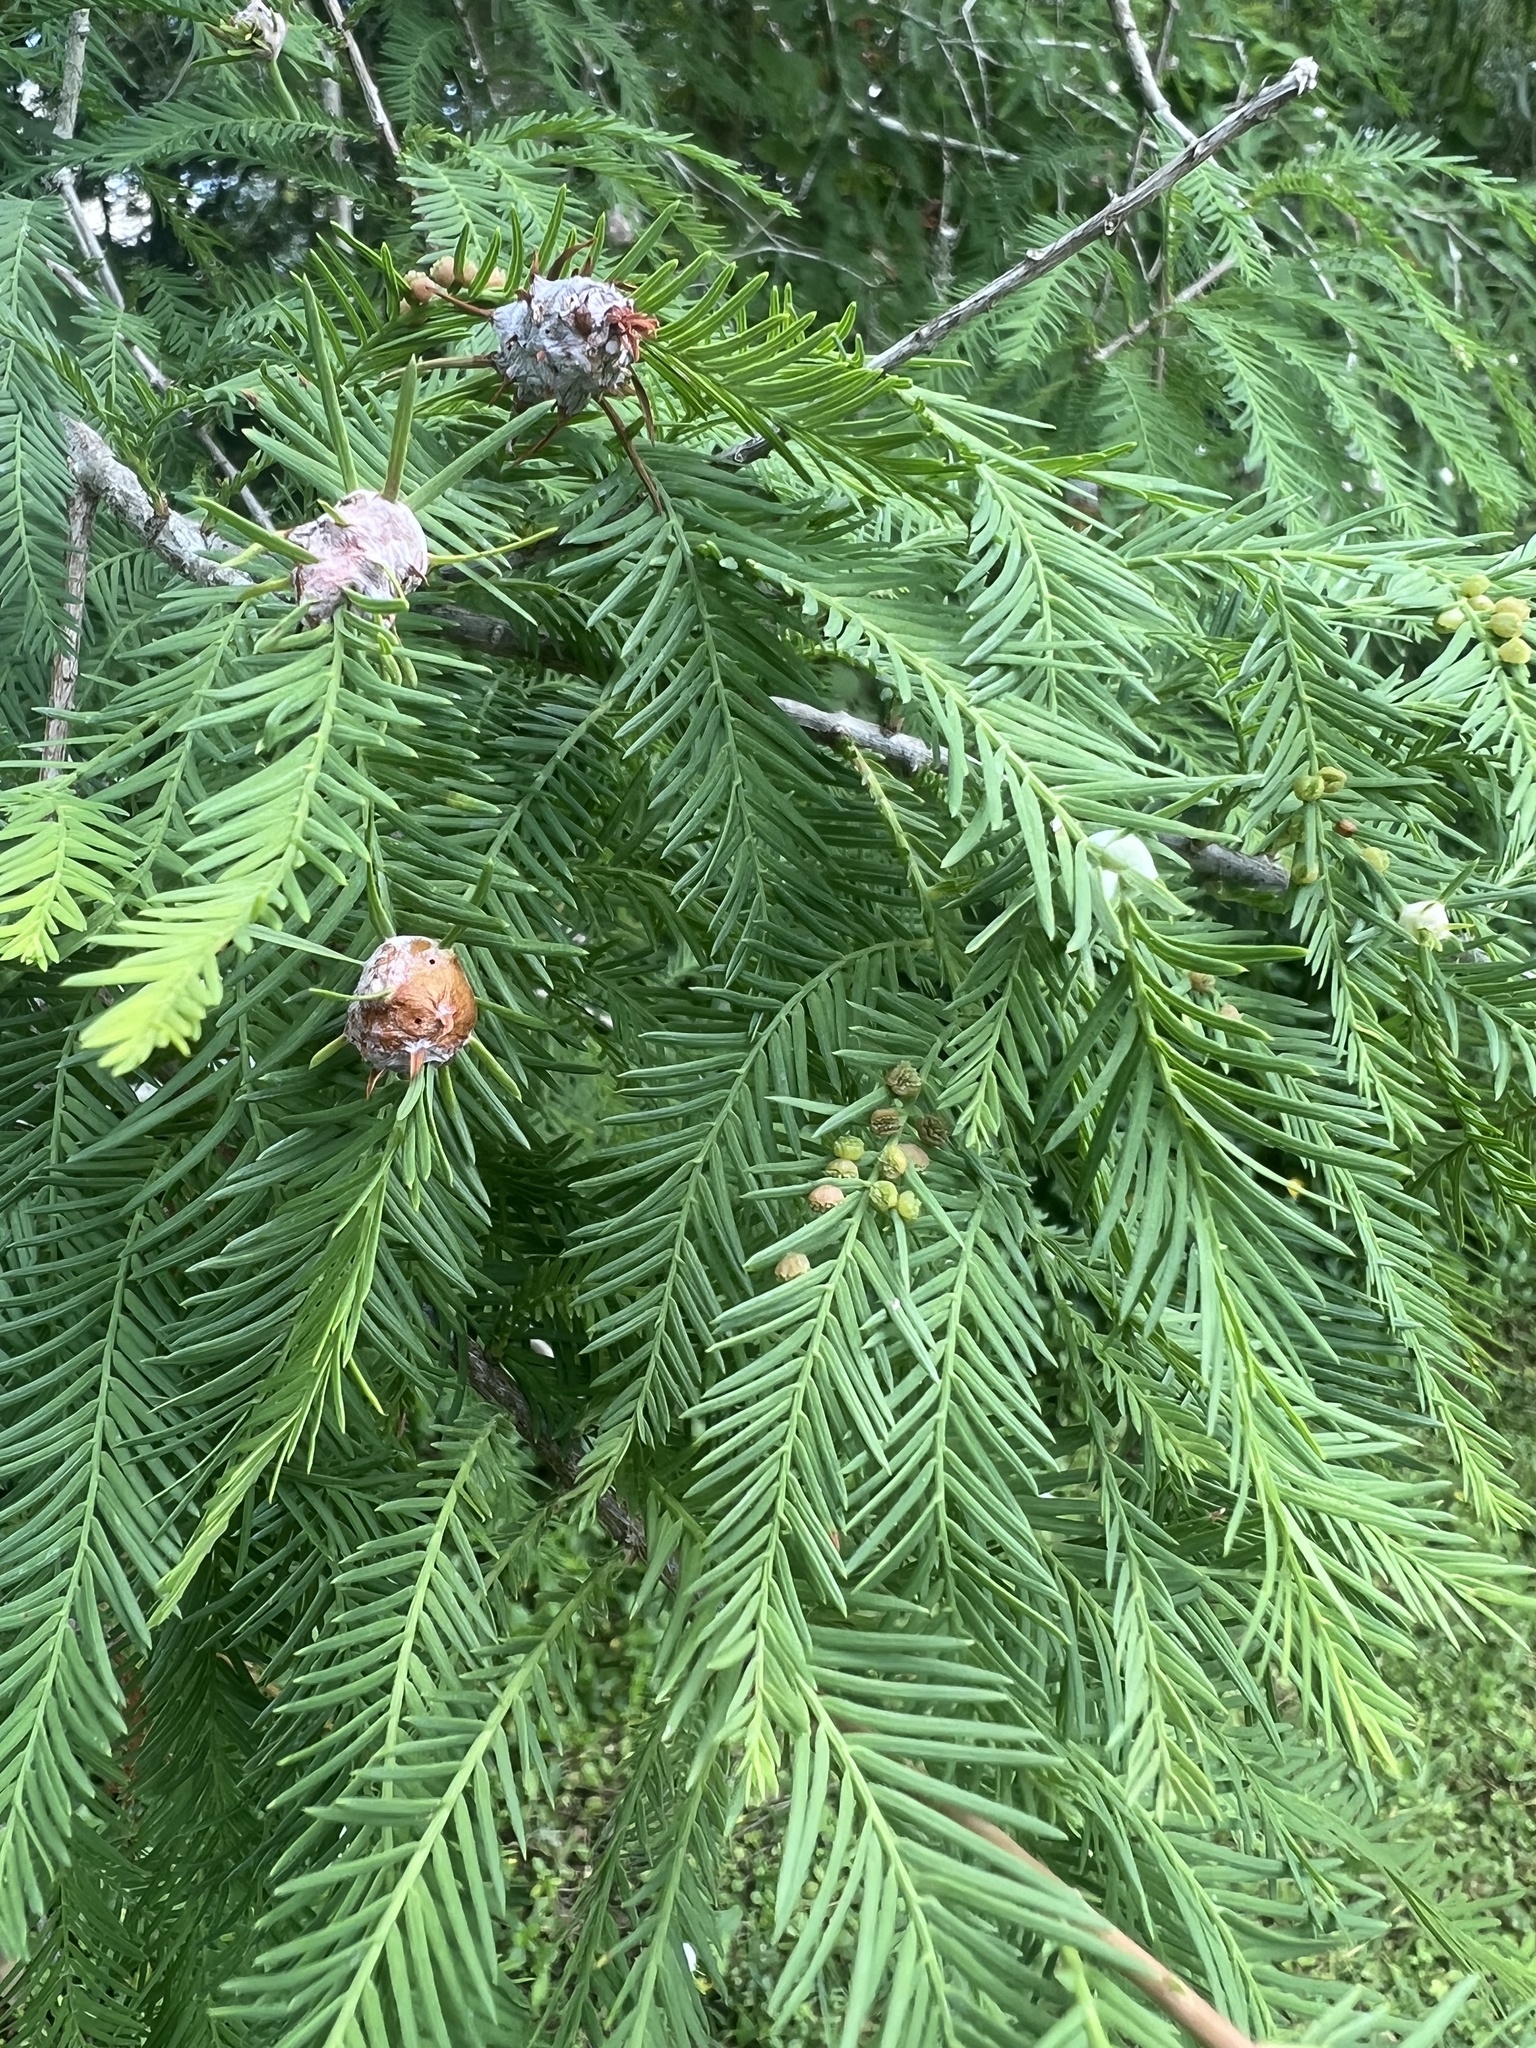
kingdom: Animalia
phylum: Arthropoda
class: Insecta
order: Diptera
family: Cecidomyiidae
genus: Taxodiomyia
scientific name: Taxodiomyia cupressiananassa
